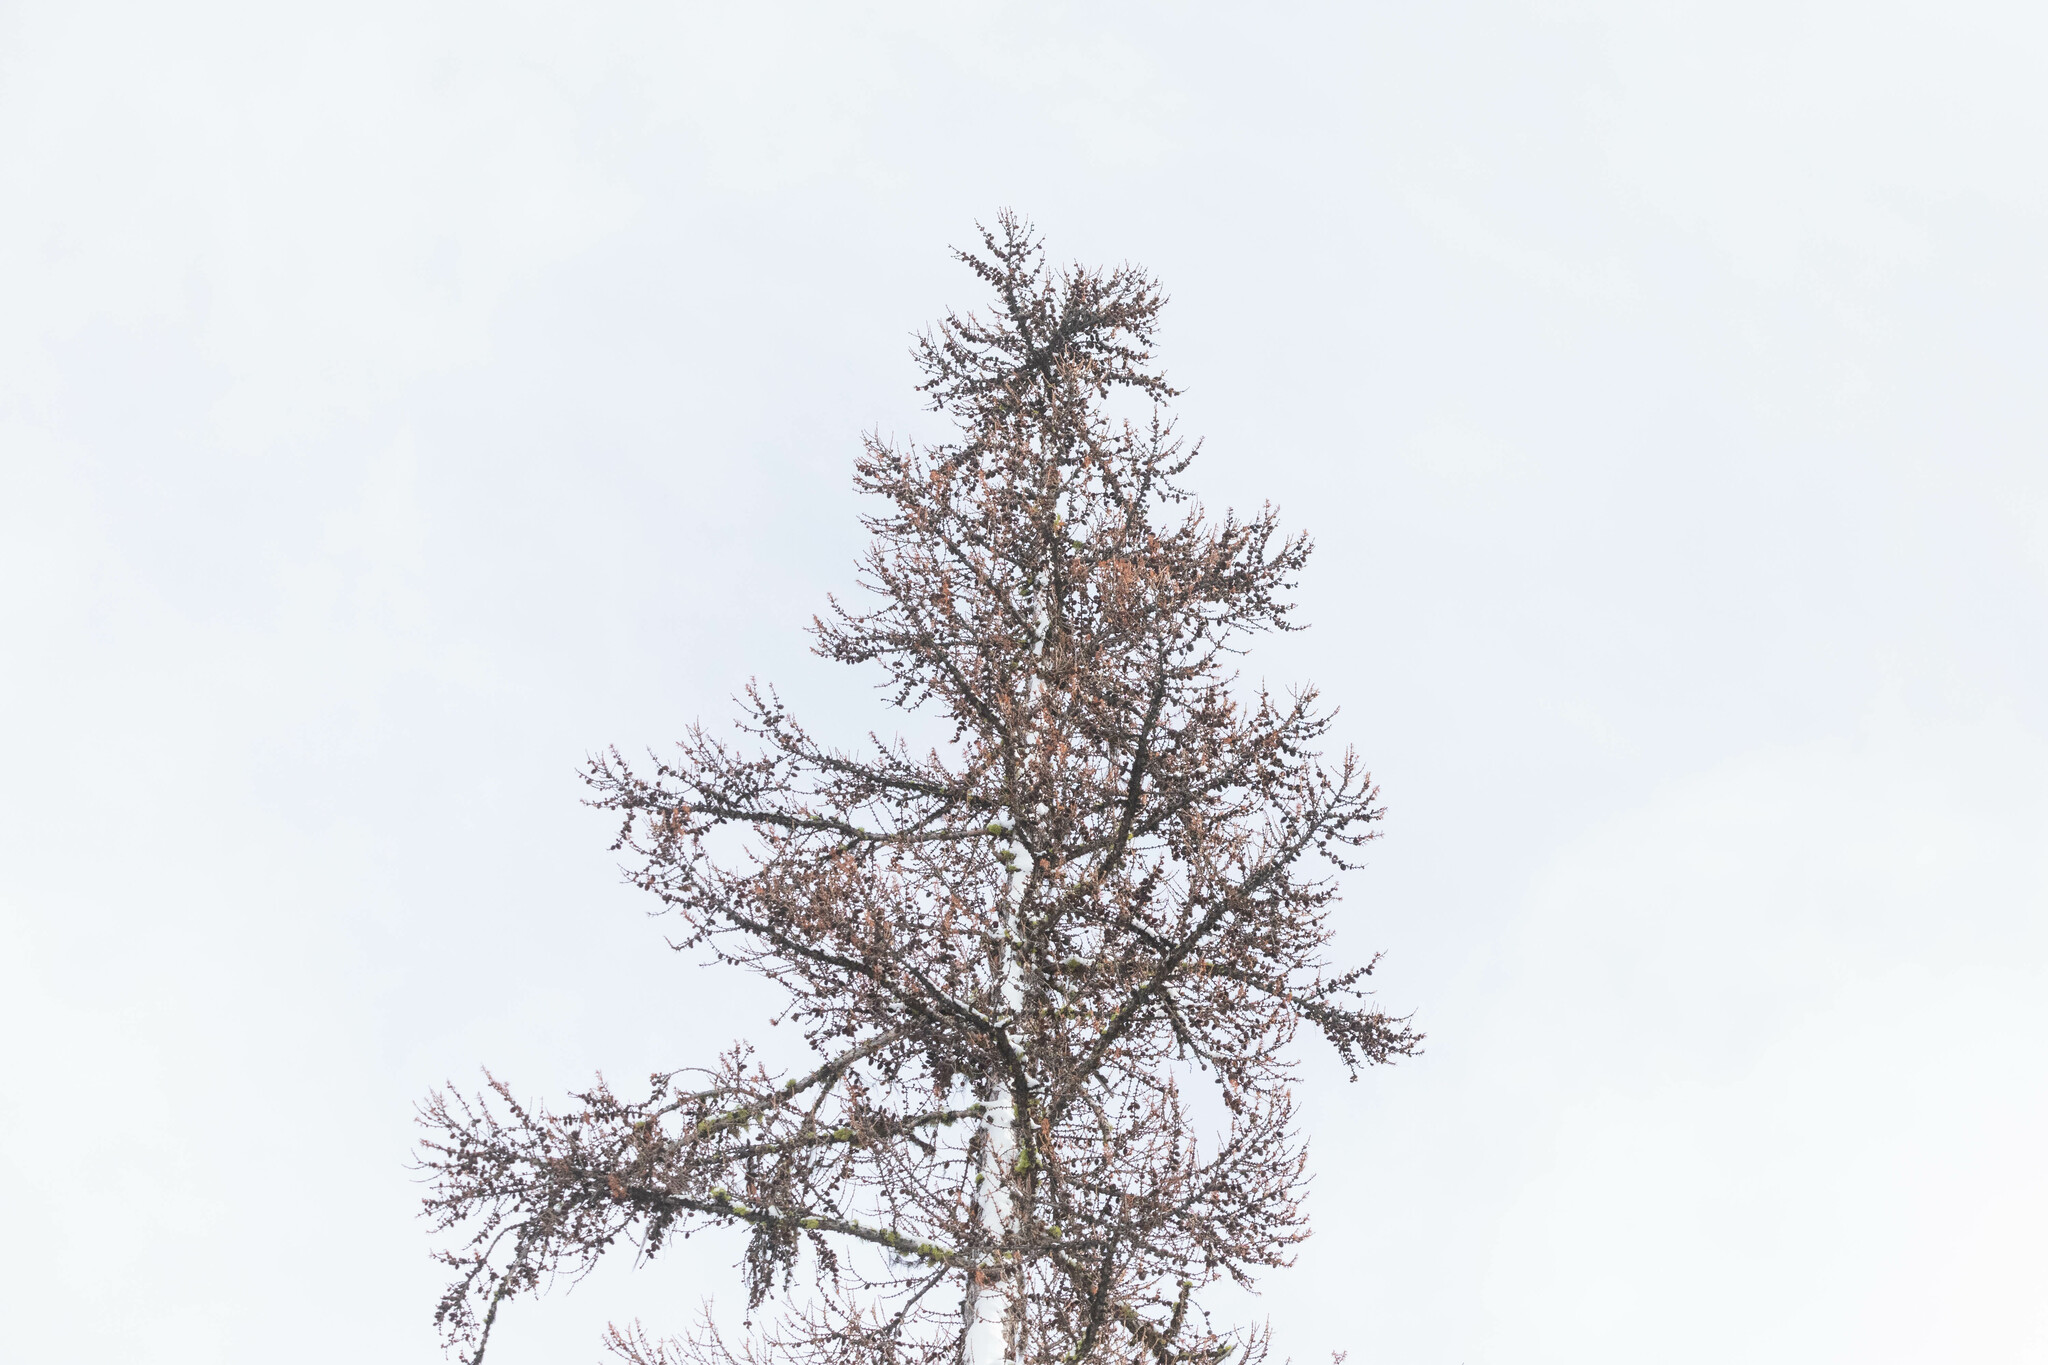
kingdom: Plantae
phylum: Tracheophyta
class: Pinopsida
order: Pinales
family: Pinaceae
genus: Larix
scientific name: Larix occidentalis
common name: Western larch
